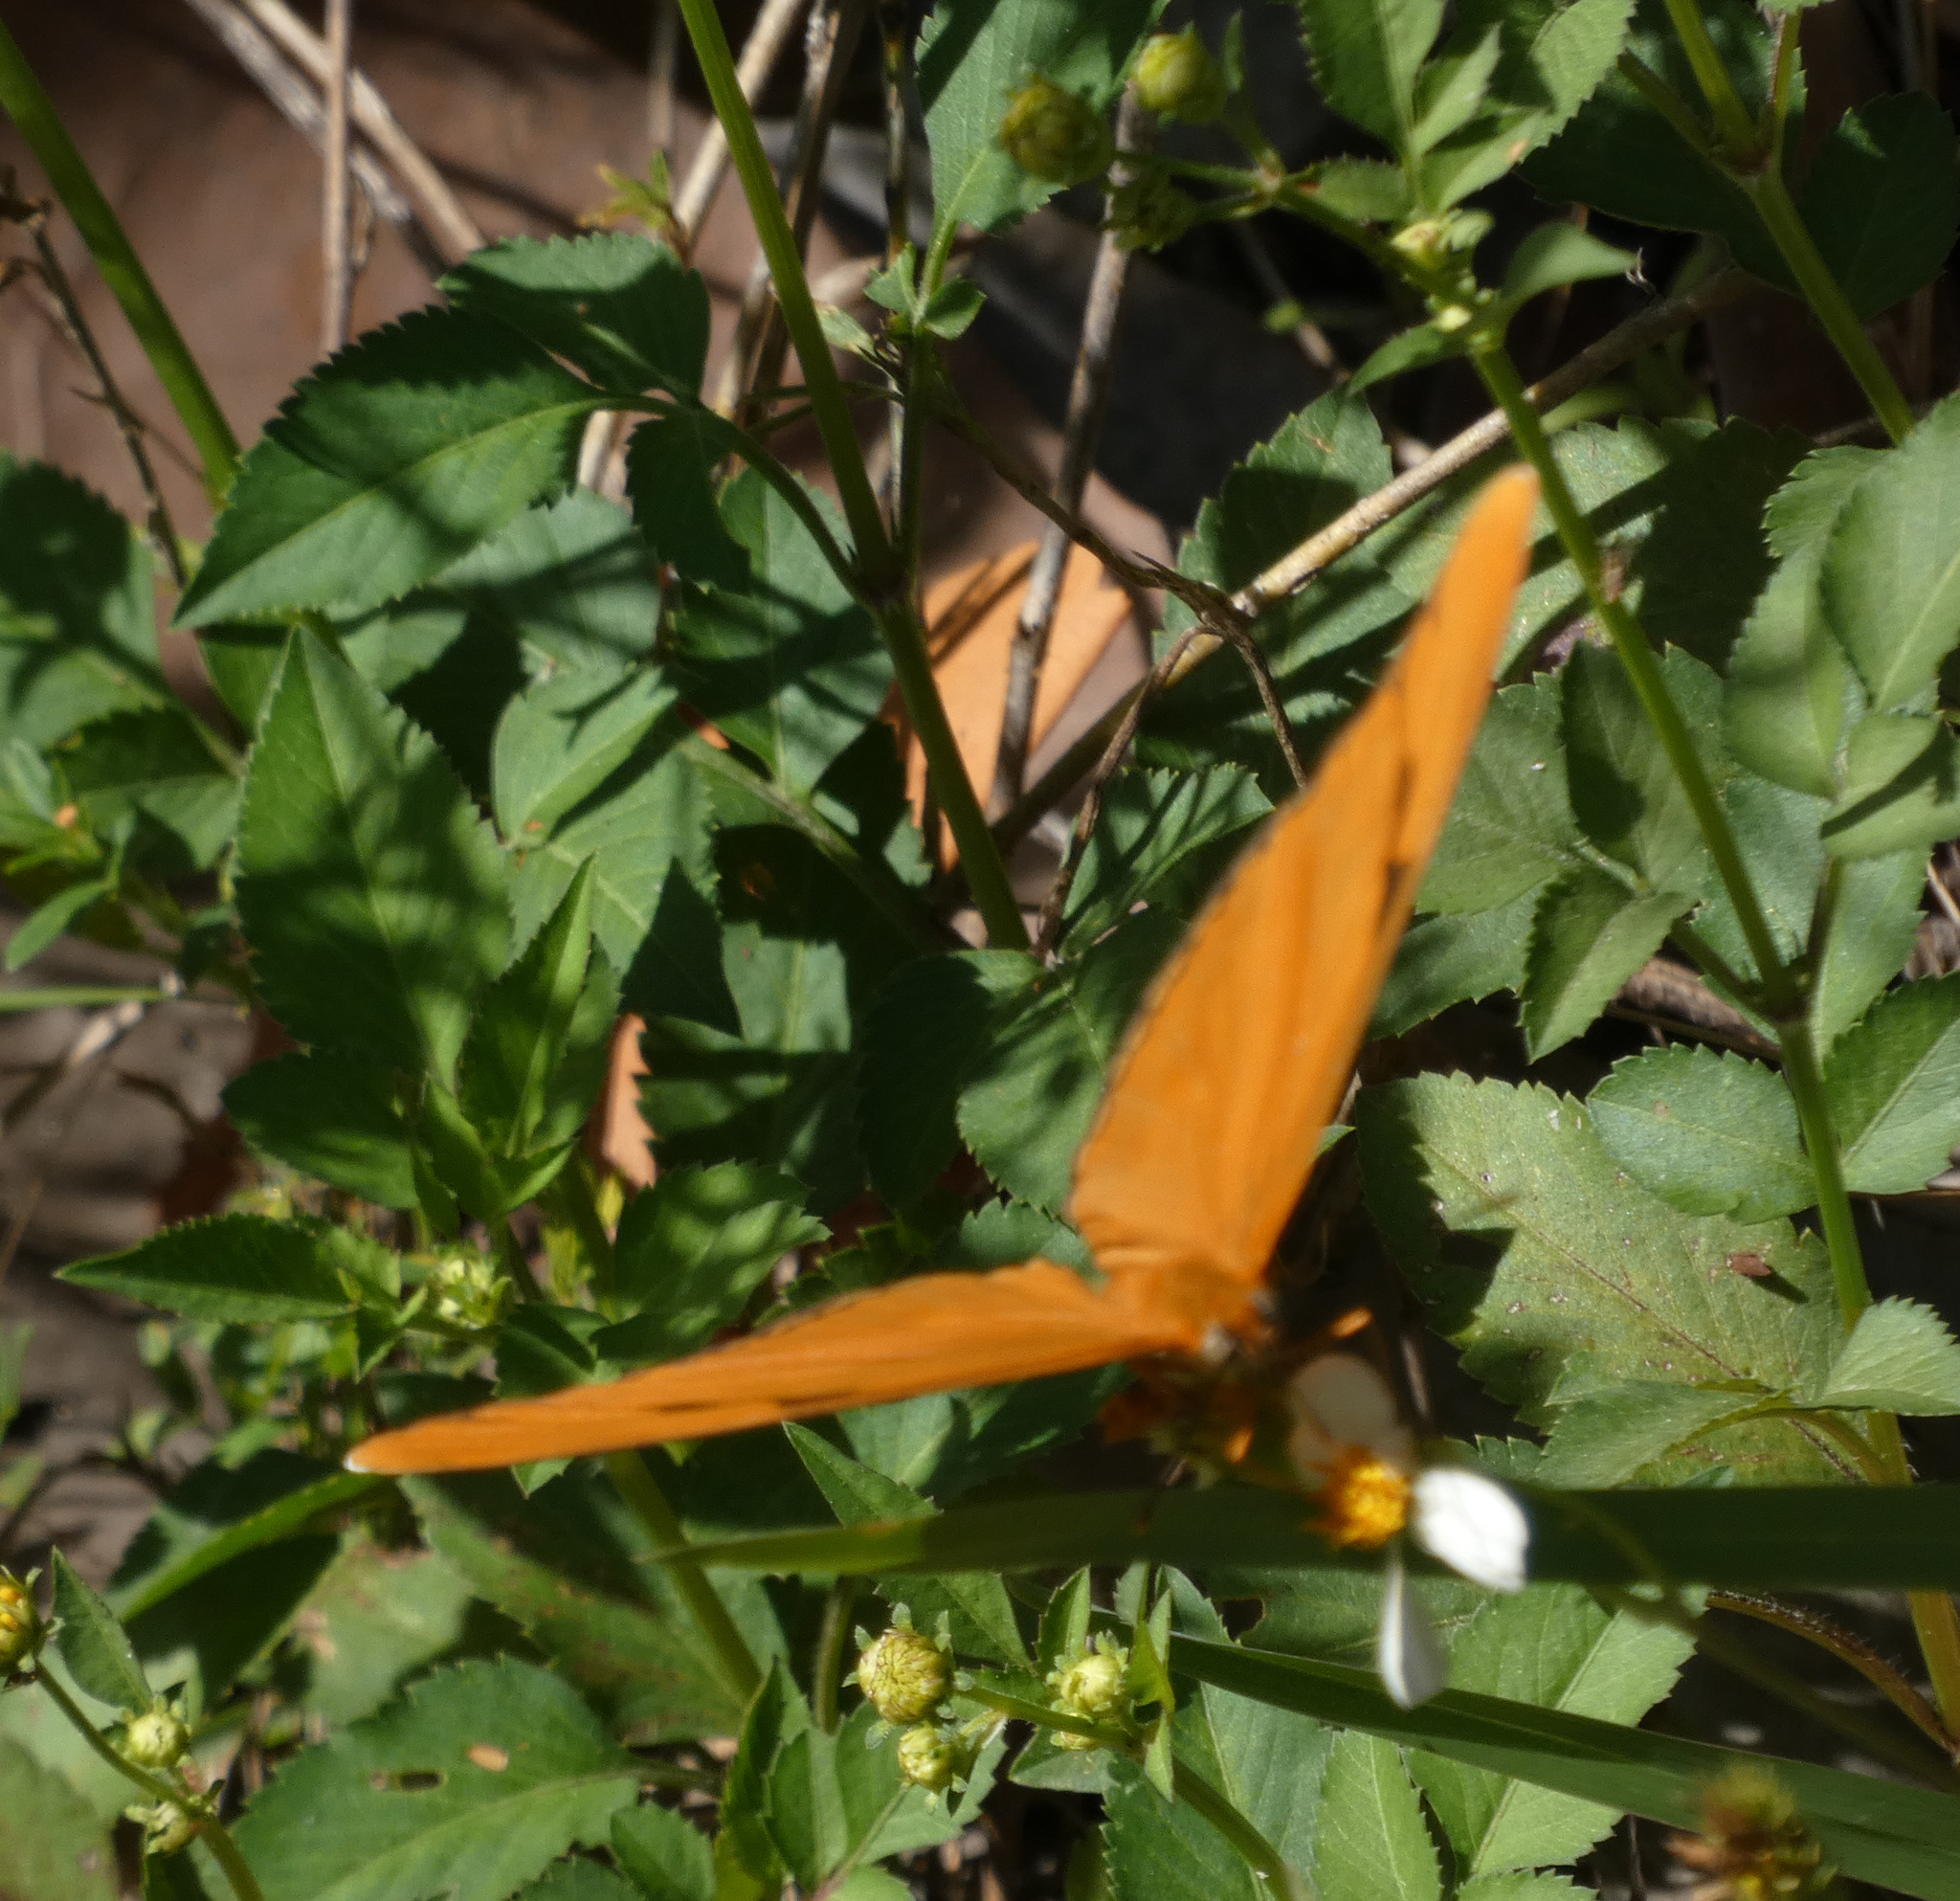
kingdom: Animalia
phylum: Arthropoda
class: Insecta
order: Lepidoptera
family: Nymphalidae
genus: Dryas
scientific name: Dryas iulia
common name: Flambeau
